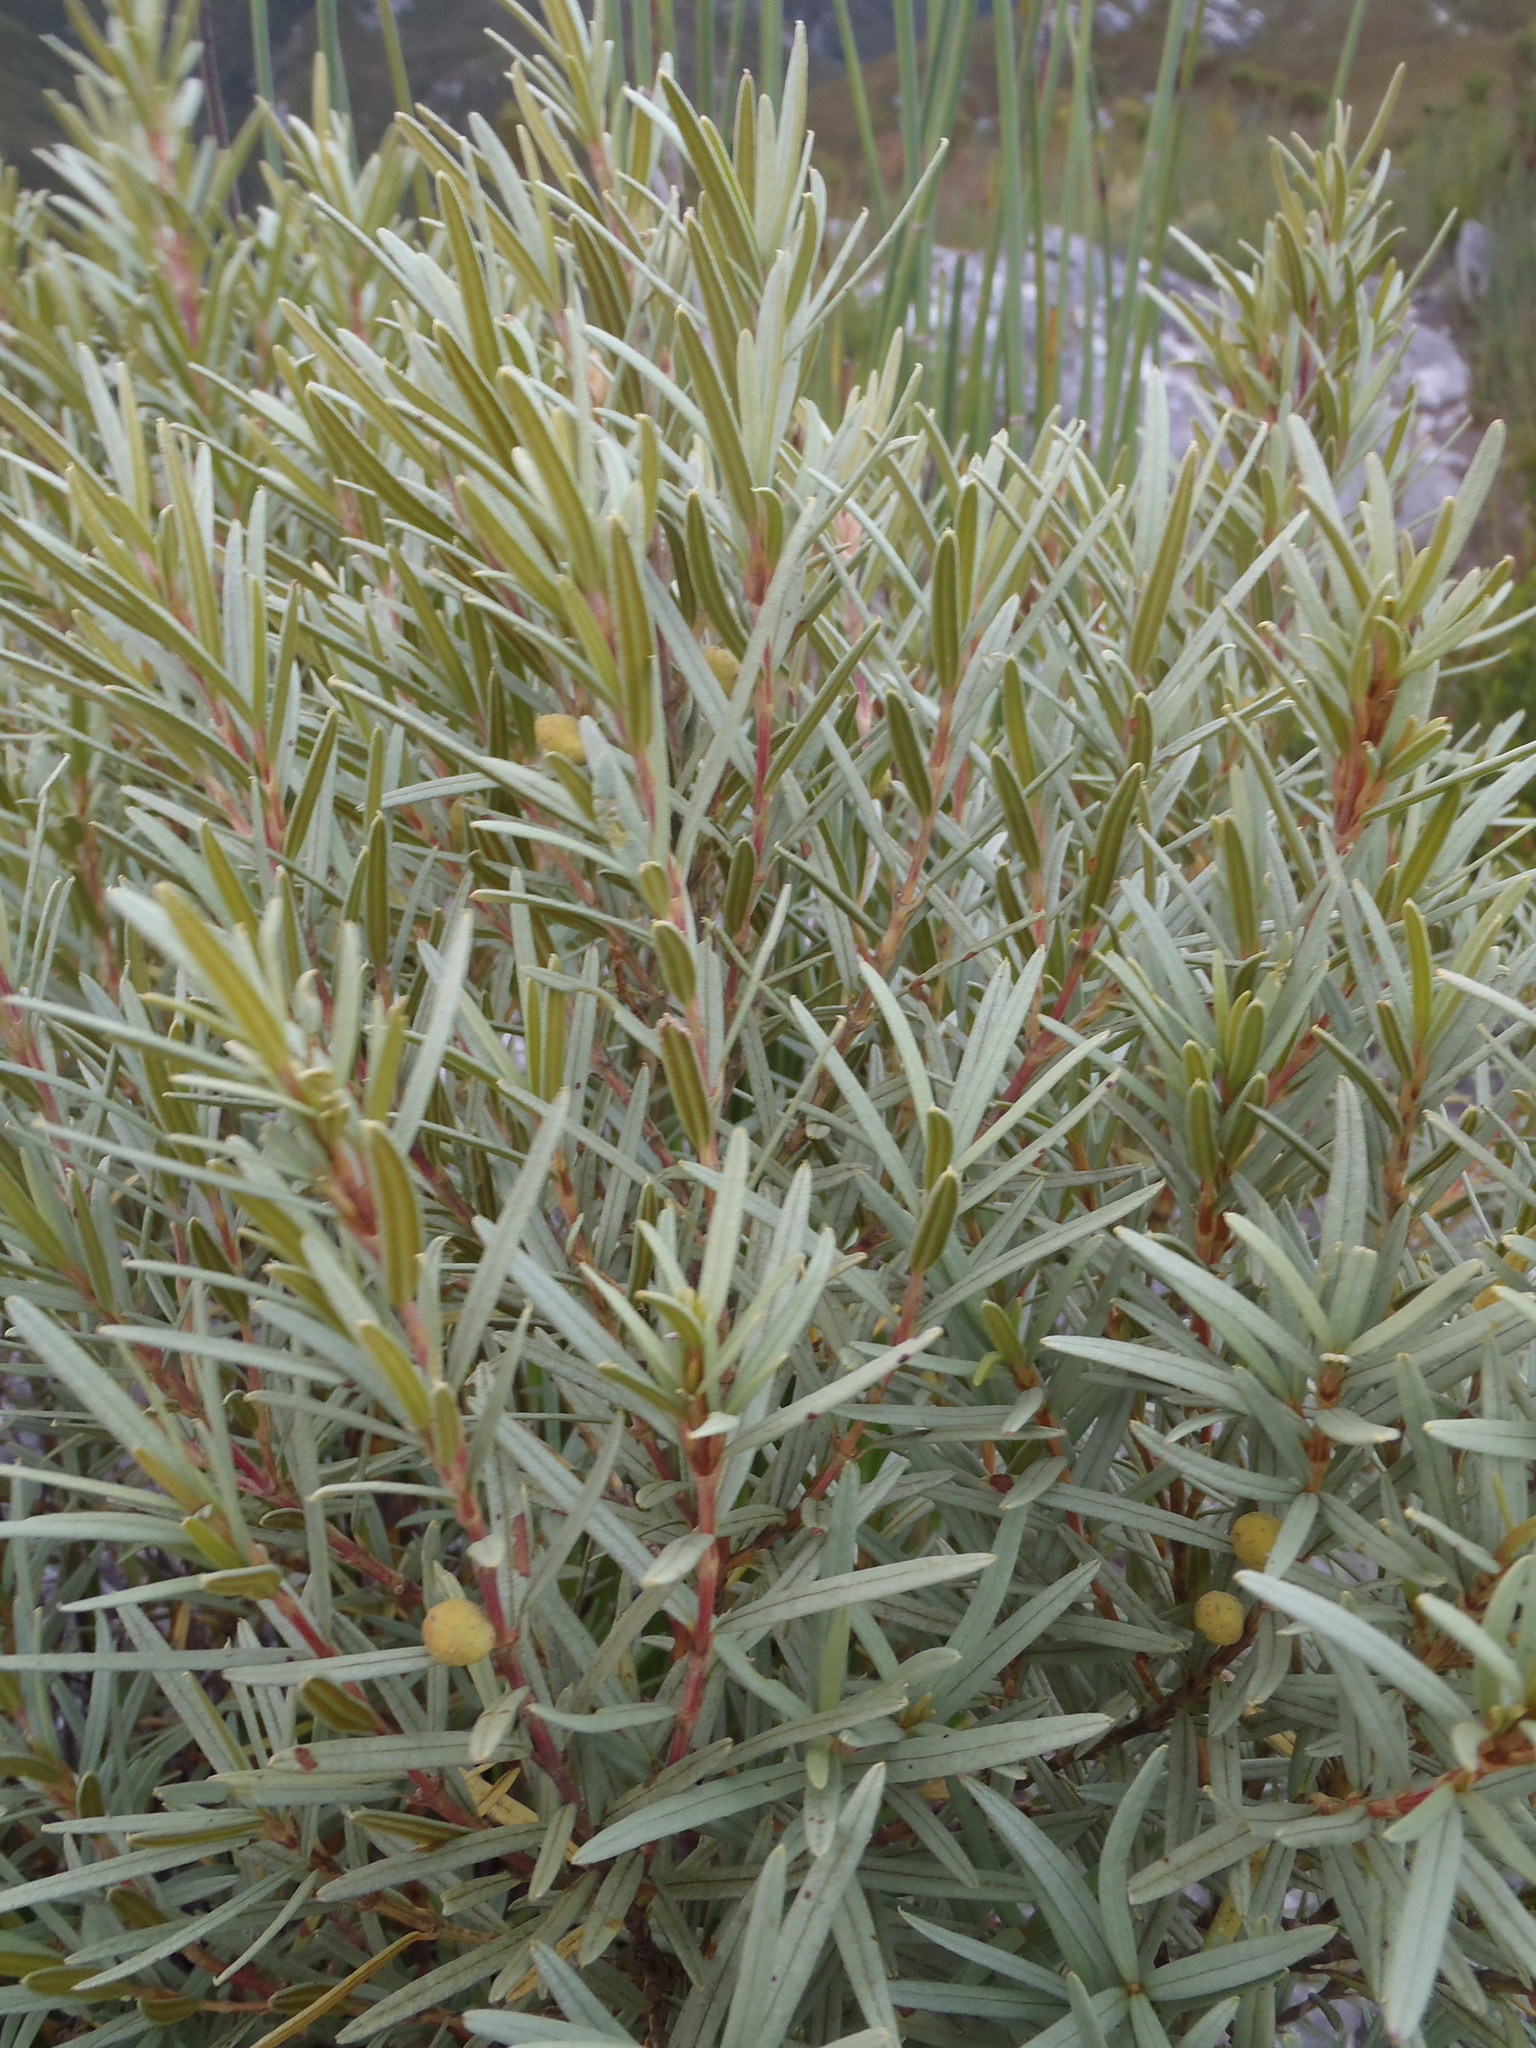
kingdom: Plantae
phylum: Tracheophyta
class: Magnoliopsida
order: Cornales
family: Grubbiaceae
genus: Grubbia
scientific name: Grubbia tomentosa
